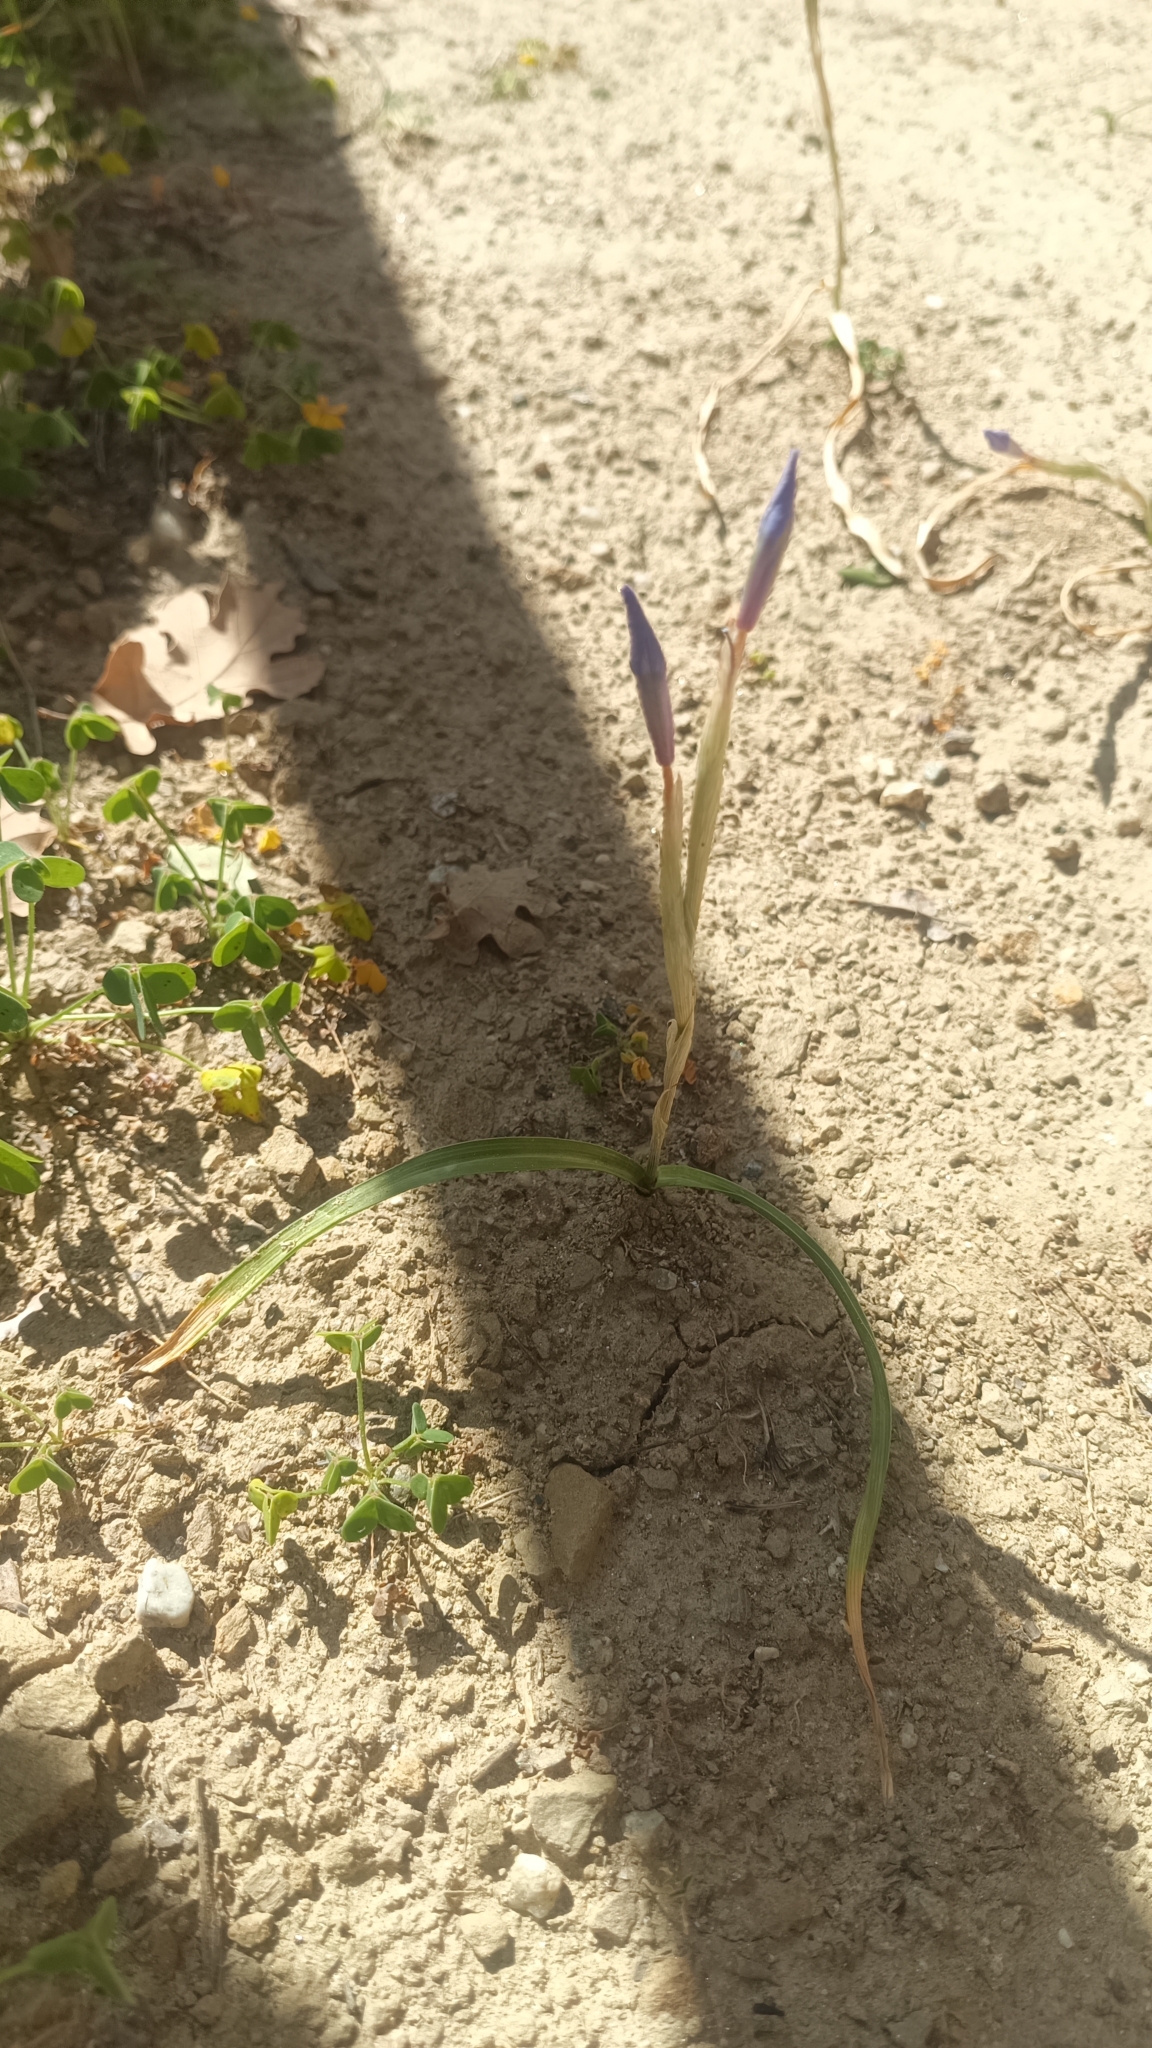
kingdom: Plantae
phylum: Tracheophyta
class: Liliopsida
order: Asparagales
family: Iridaceae
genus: Moraea
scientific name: Moraea sisyrinchium
